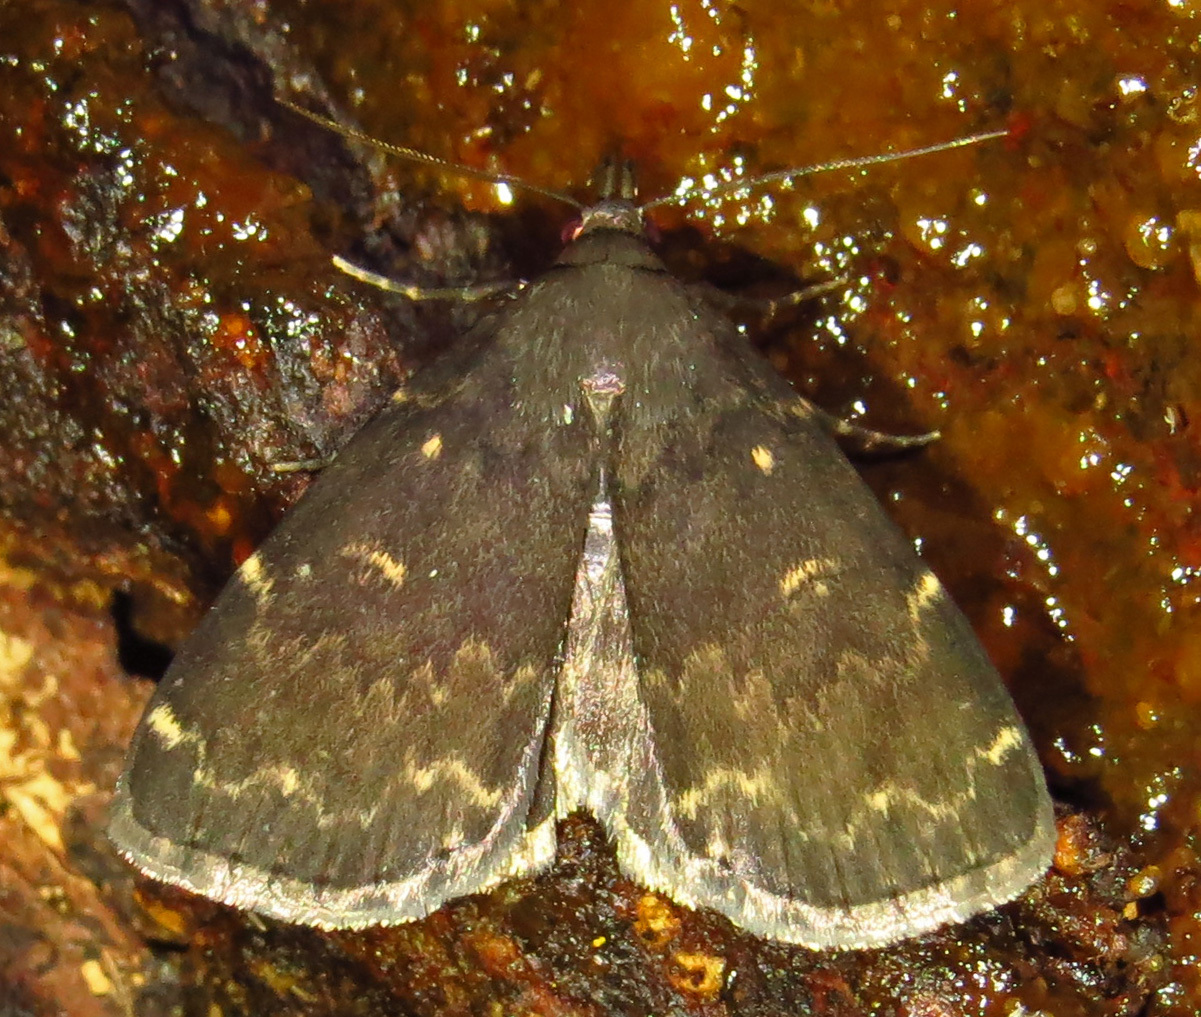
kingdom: Animalia
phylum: Arthropoda
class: Insecta
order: Lepidoptera
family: Erebidae
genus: Idia
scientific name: Idia lubricalis
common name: Twin-striped tabby
